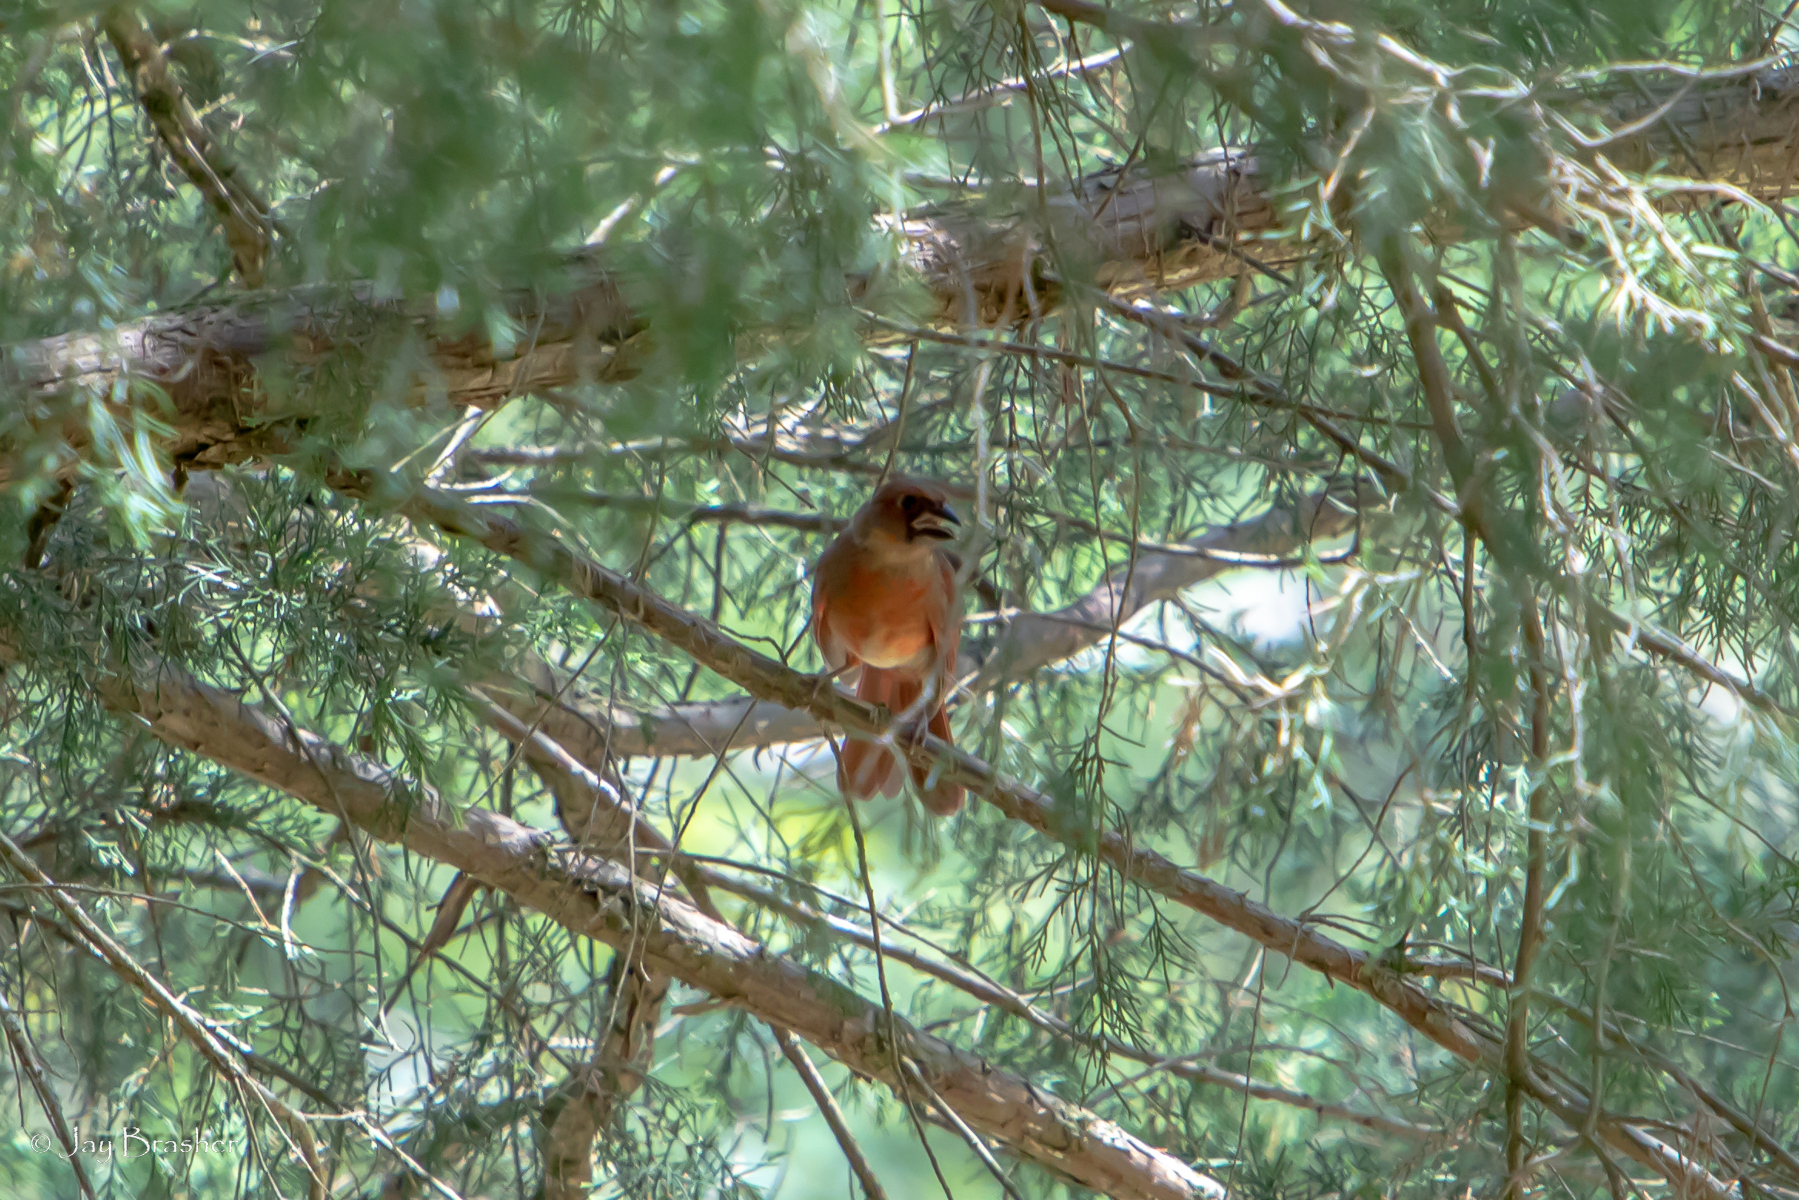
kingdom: Animalia
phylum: Chordata
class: Aves
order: Passeriformes
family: Cardinalidae
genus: Cardinalis
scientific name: Cardinalis cardinalis
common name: Northern cardinal
